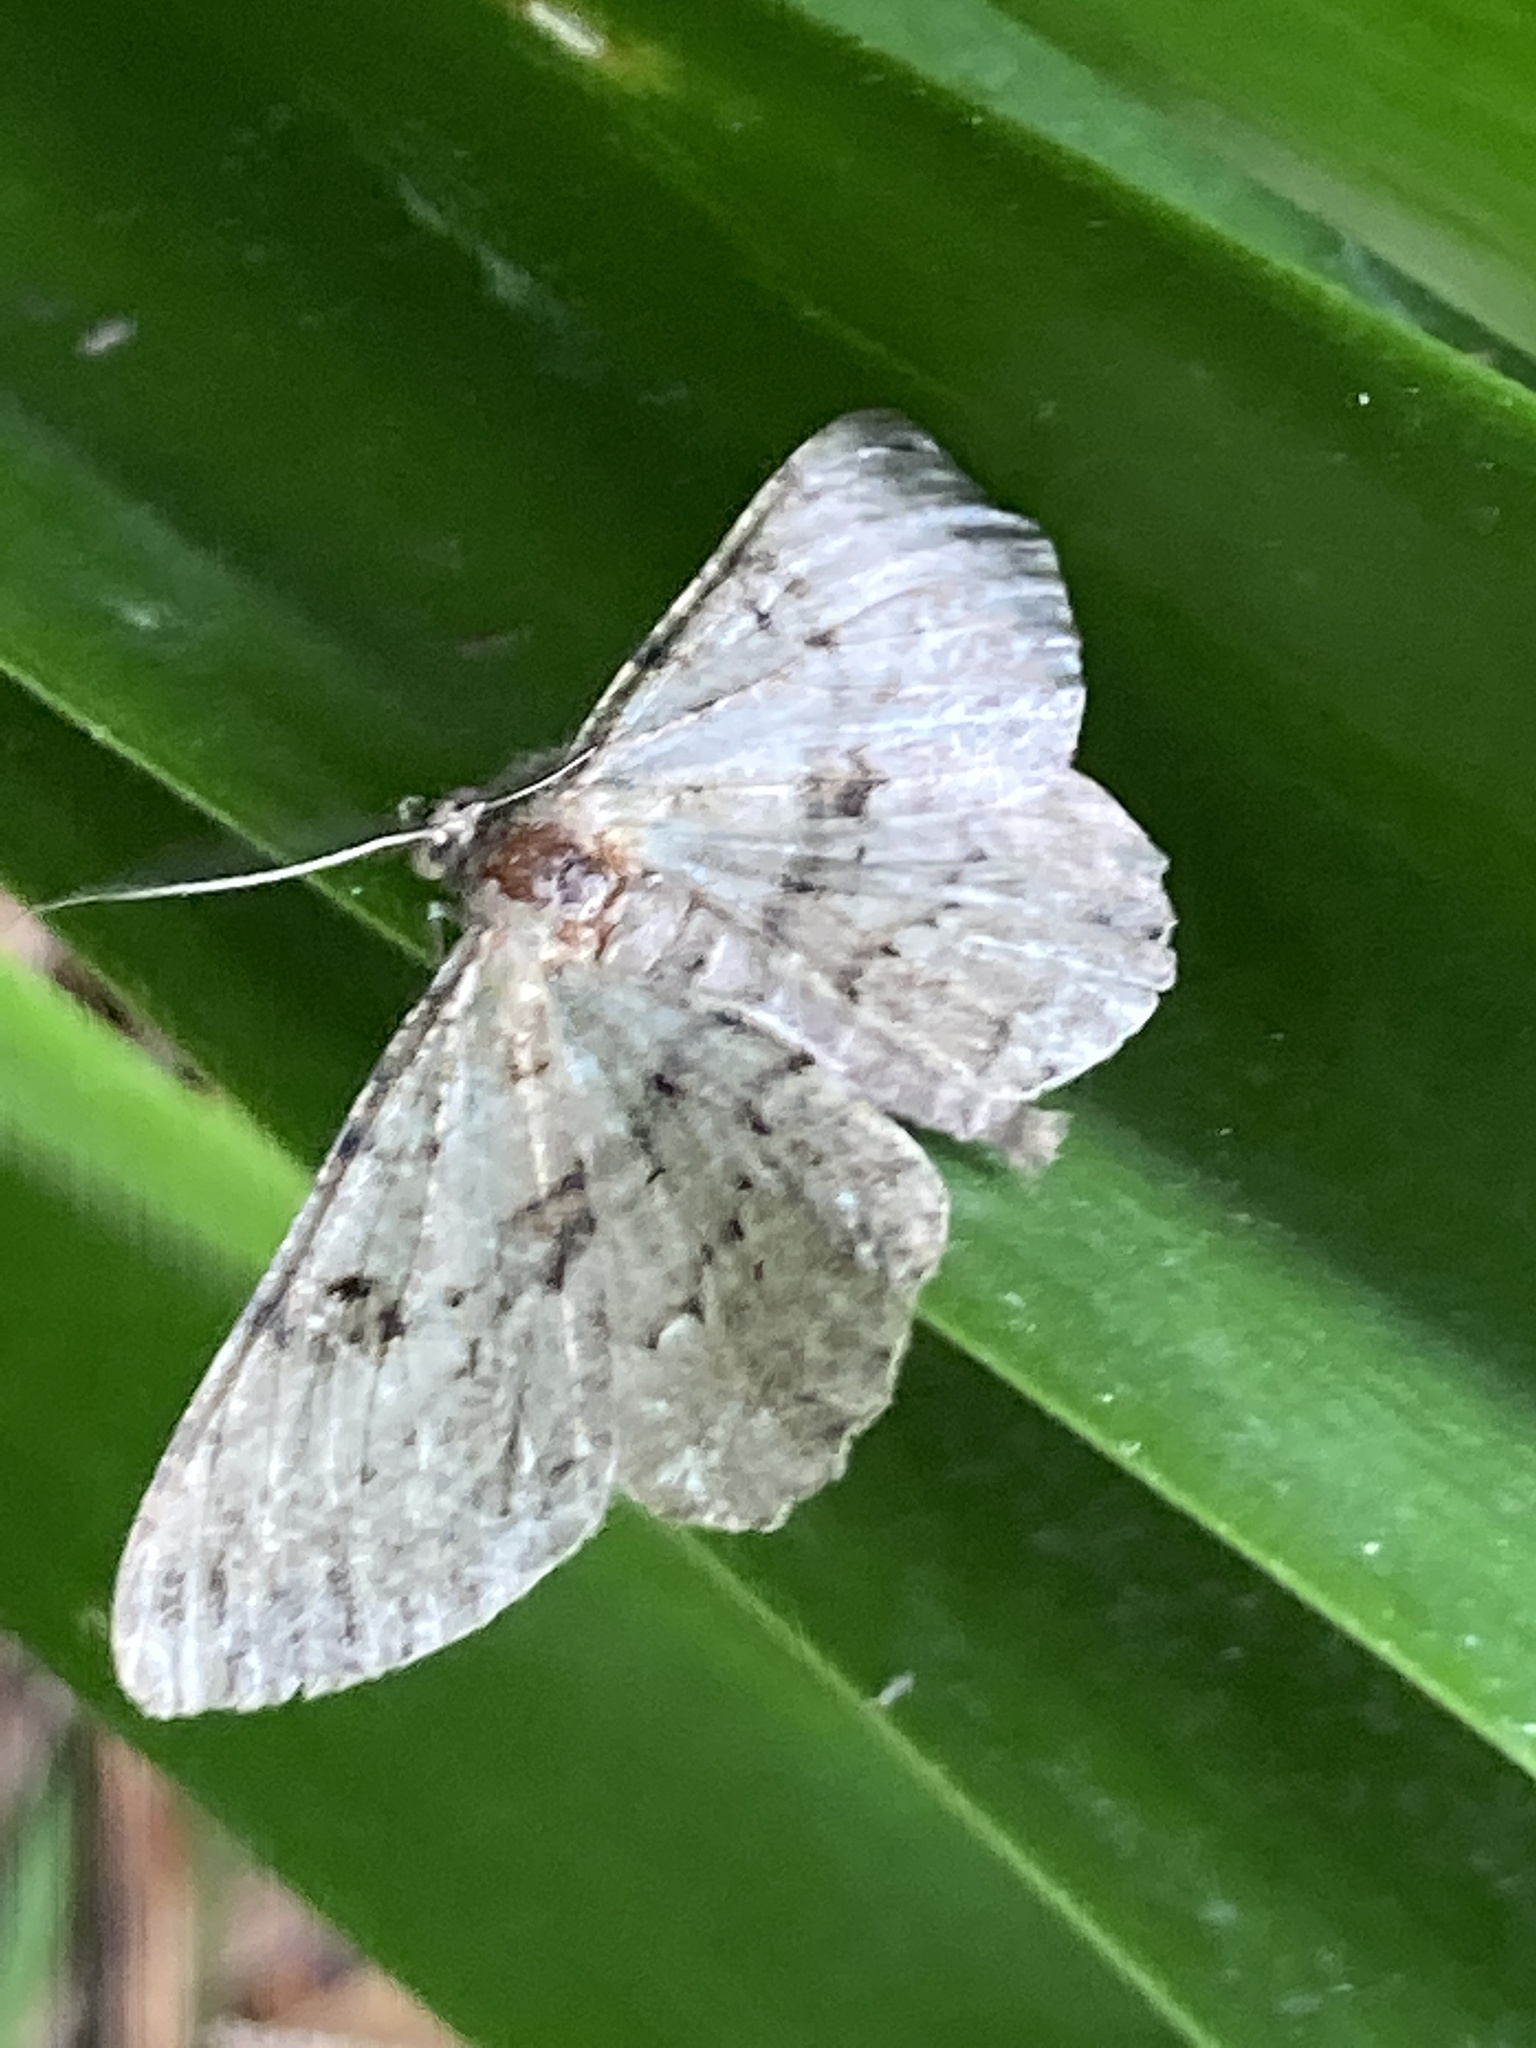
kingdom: Animalia
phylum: Arthropoda
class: Insecta
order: Lepidoptera
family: Geometridae
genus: Peribatodes
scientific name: Peribatodes rhomboidaria
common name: Willow beauty
